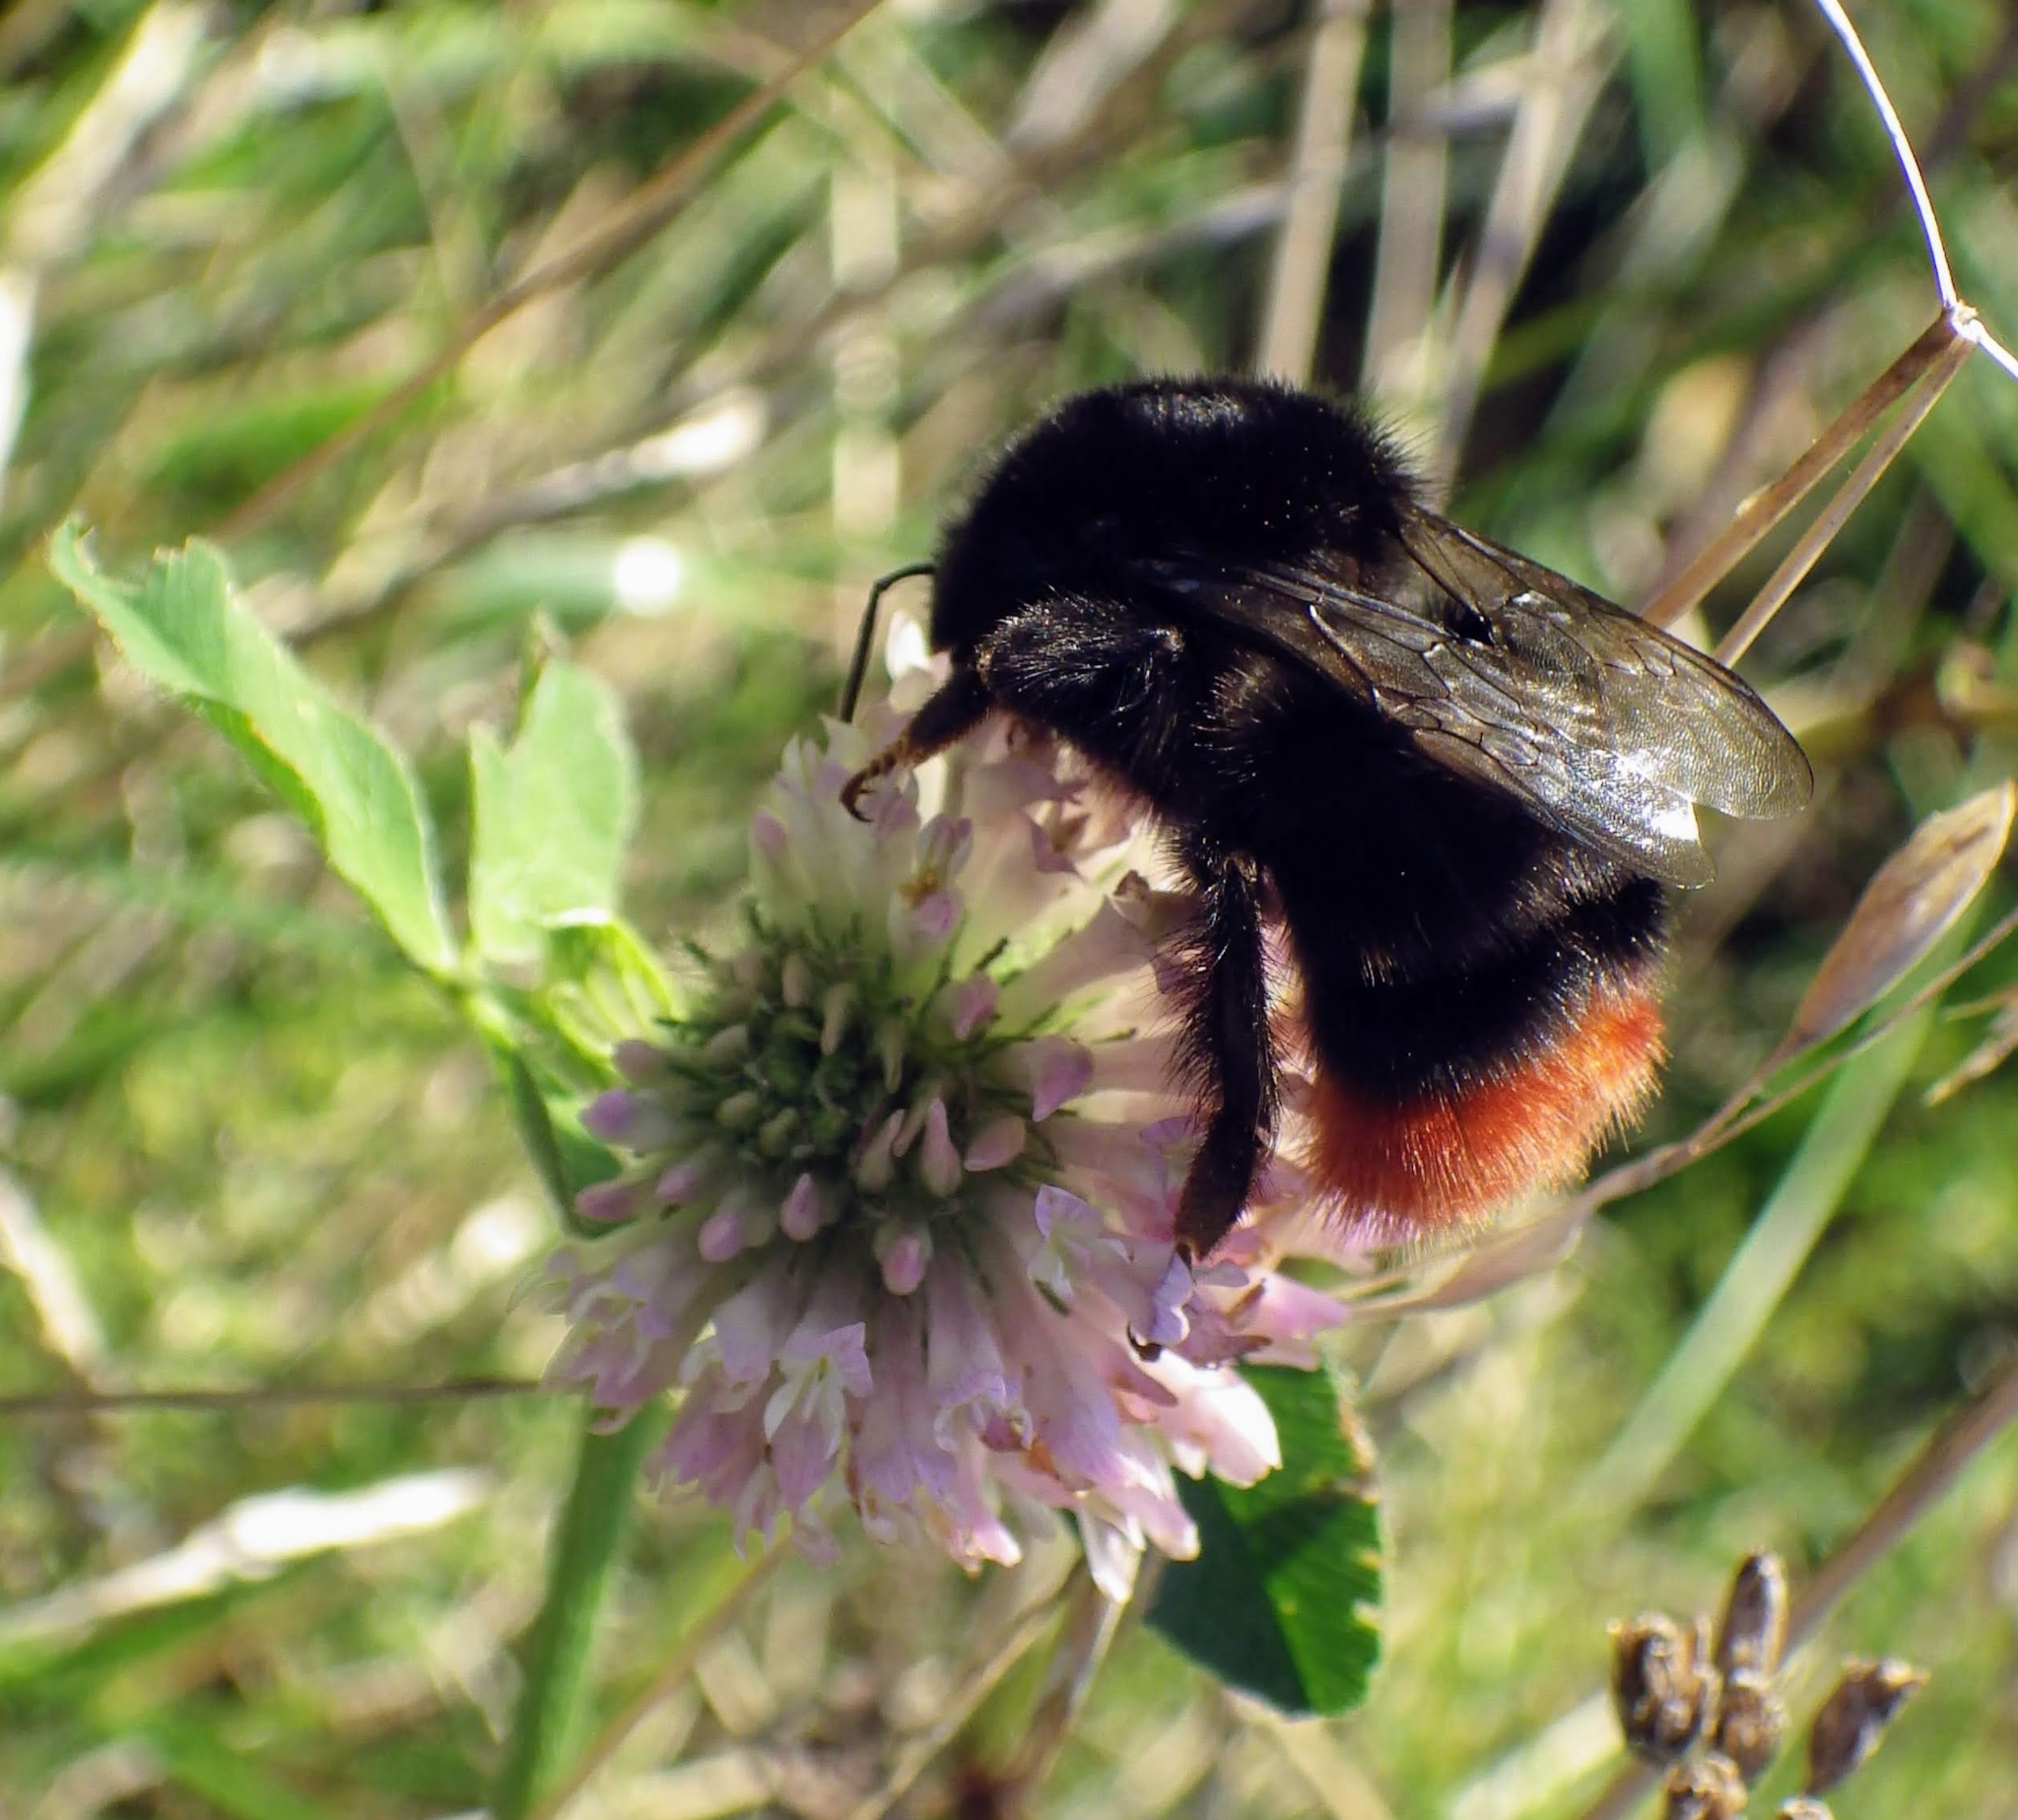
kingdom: Animalia
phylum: Arthropoda
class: Insecta
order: Hymenoptera
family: Apidae
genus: Bombus
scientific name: Bombus lapidarius
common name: Large red-tailed humble-bee
